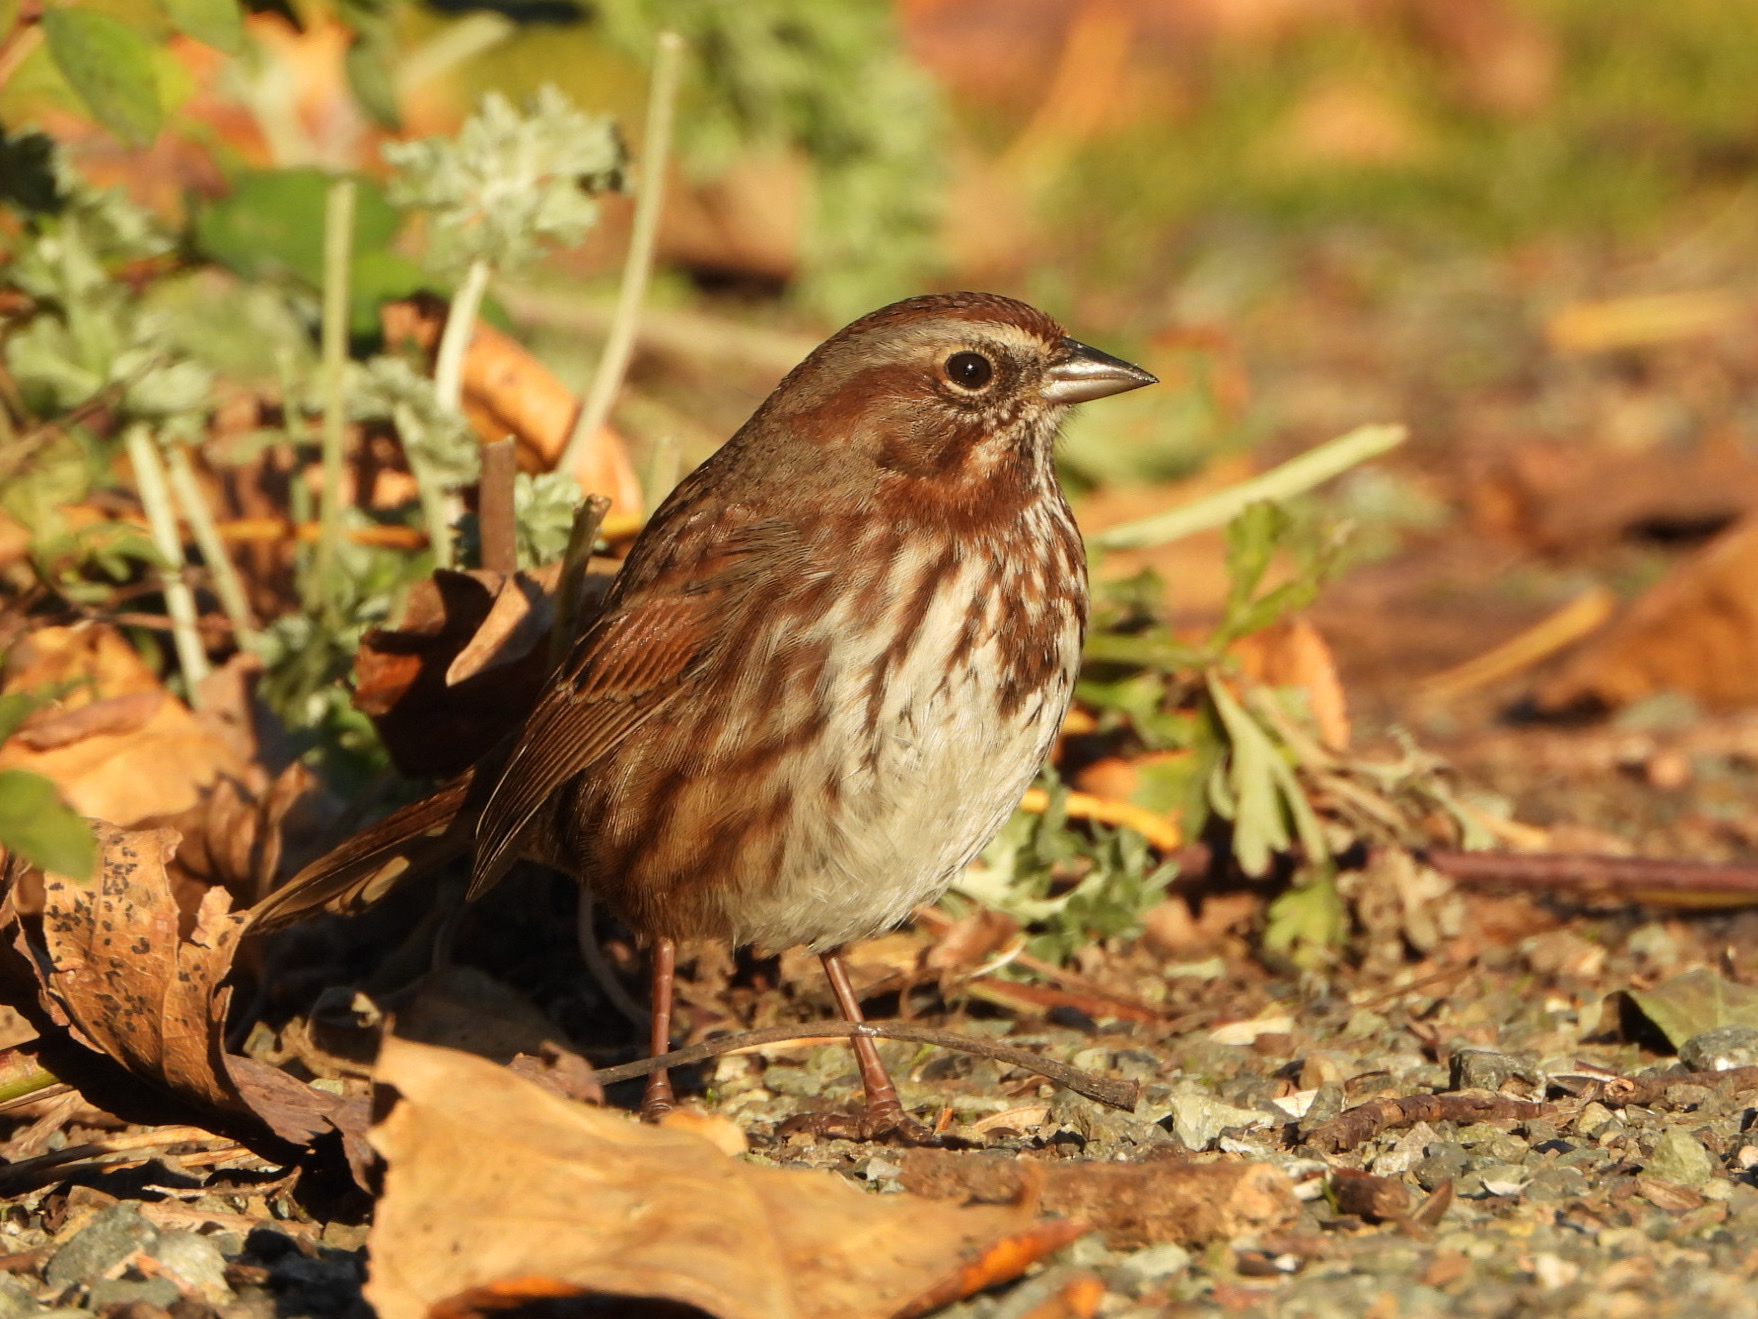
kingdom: Animalia
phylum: Chordata
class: Aves
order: Passeriformes
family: Passerellidae
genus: Melospiza
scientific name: Melospiza melodia
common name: Song sparrow
